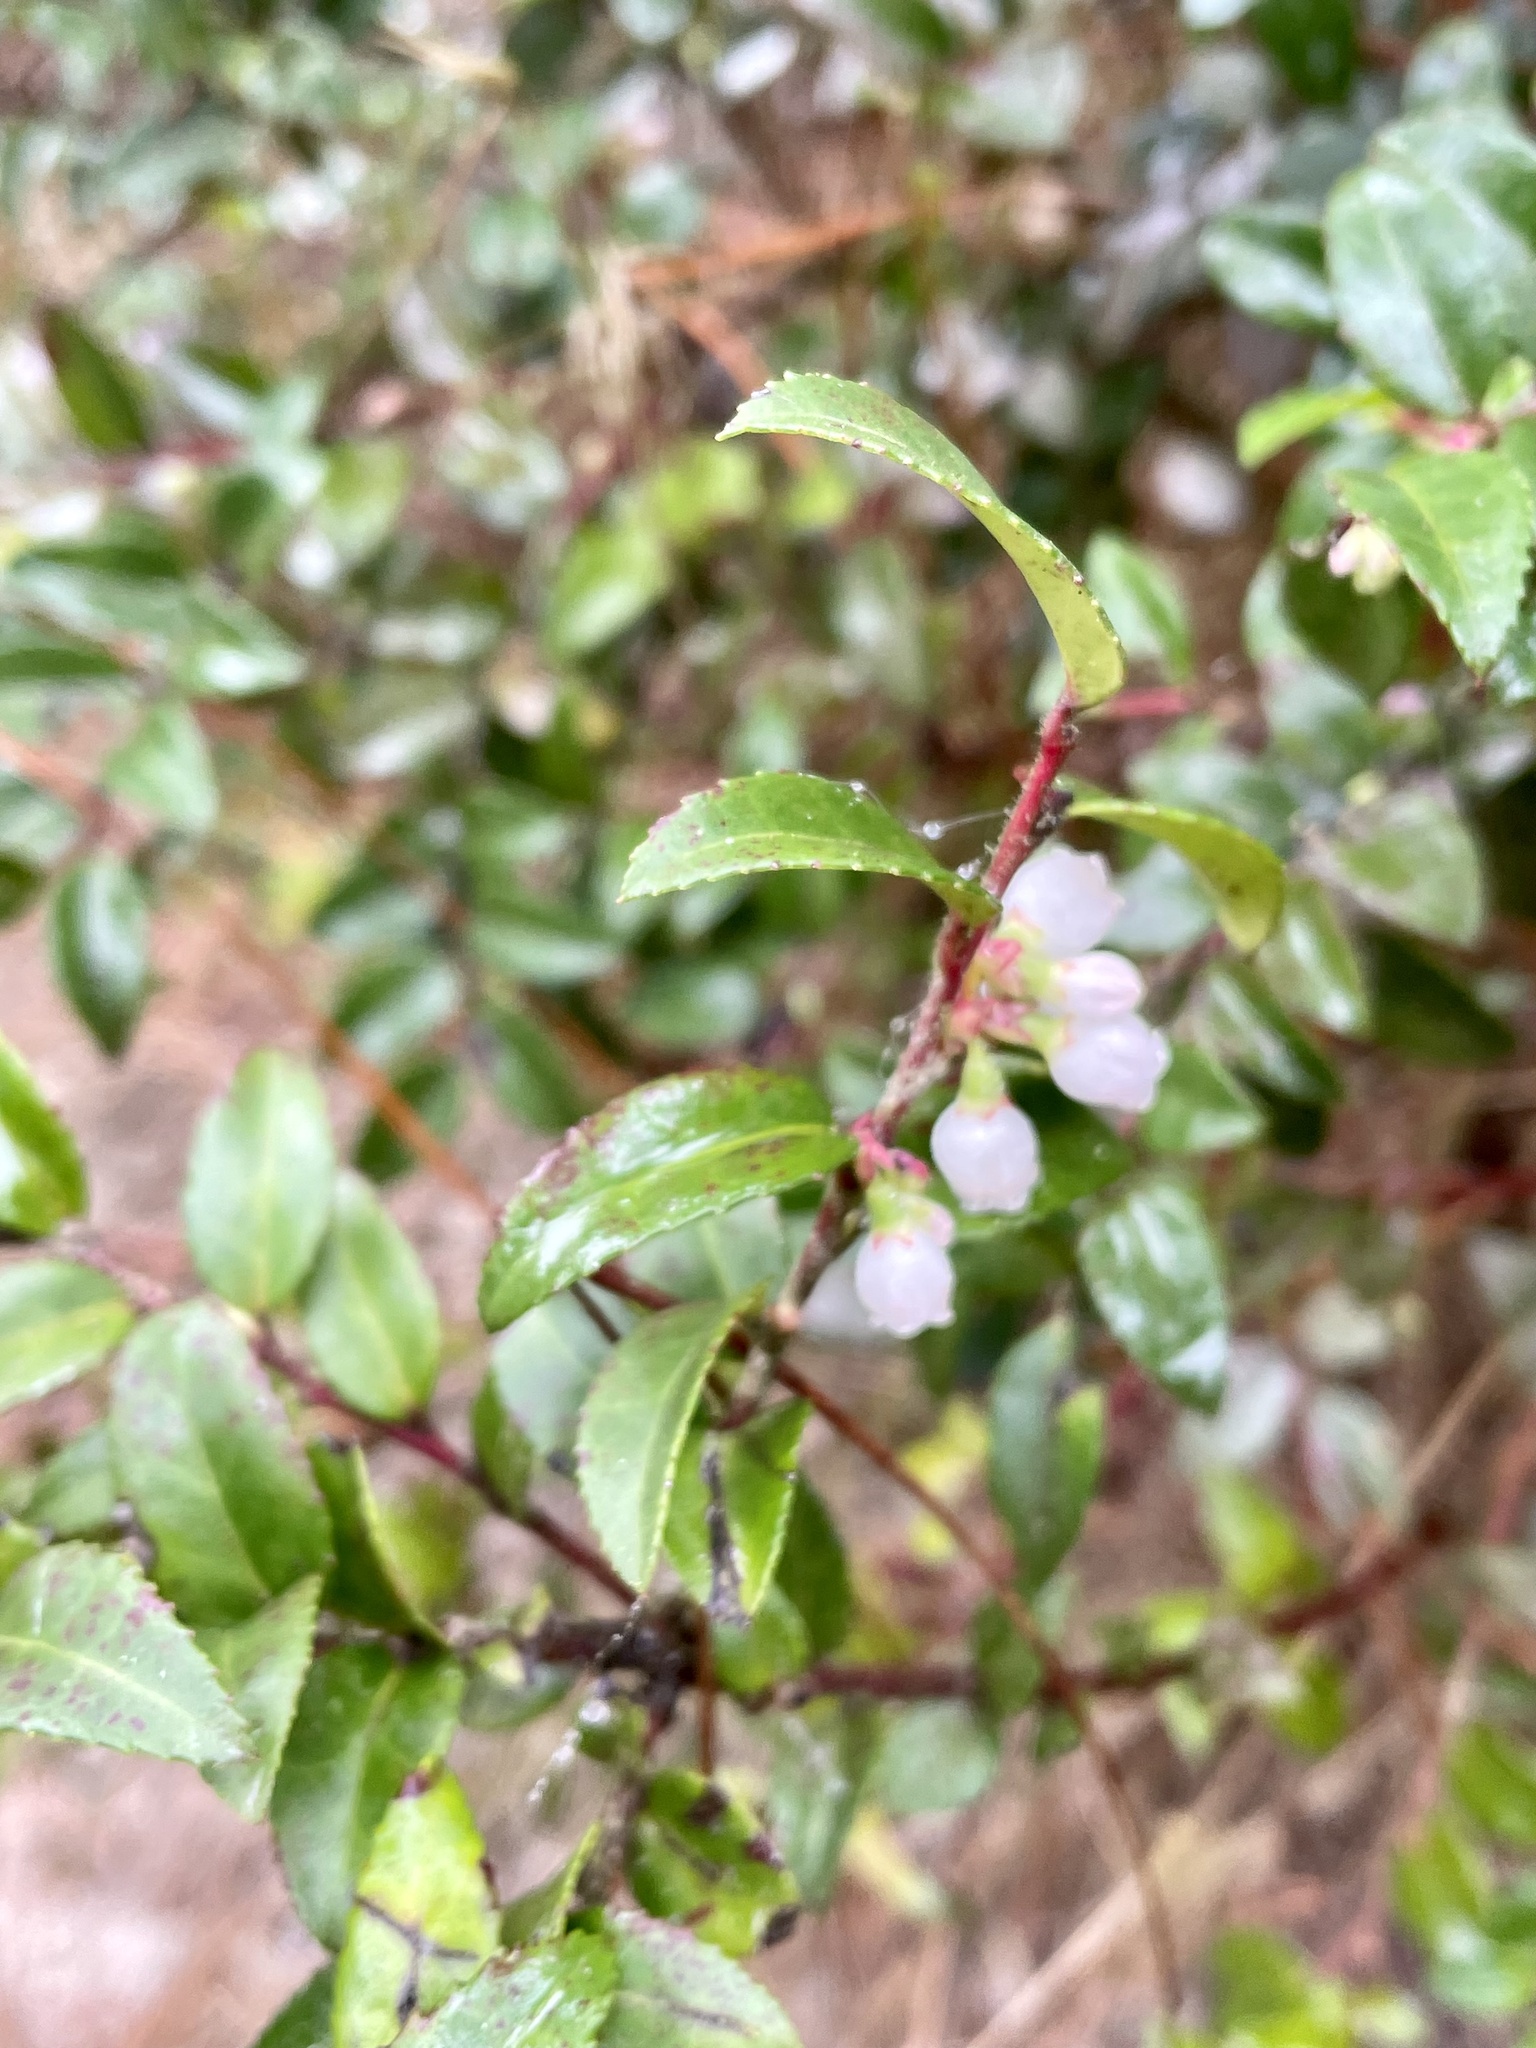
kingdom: Plantae
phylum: Tracheophyta
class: Magnoliopsida
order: Ericales
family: Ericaceae
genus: Vaccinium
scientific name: Vaccinium ovatum
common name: California-huckleberry
